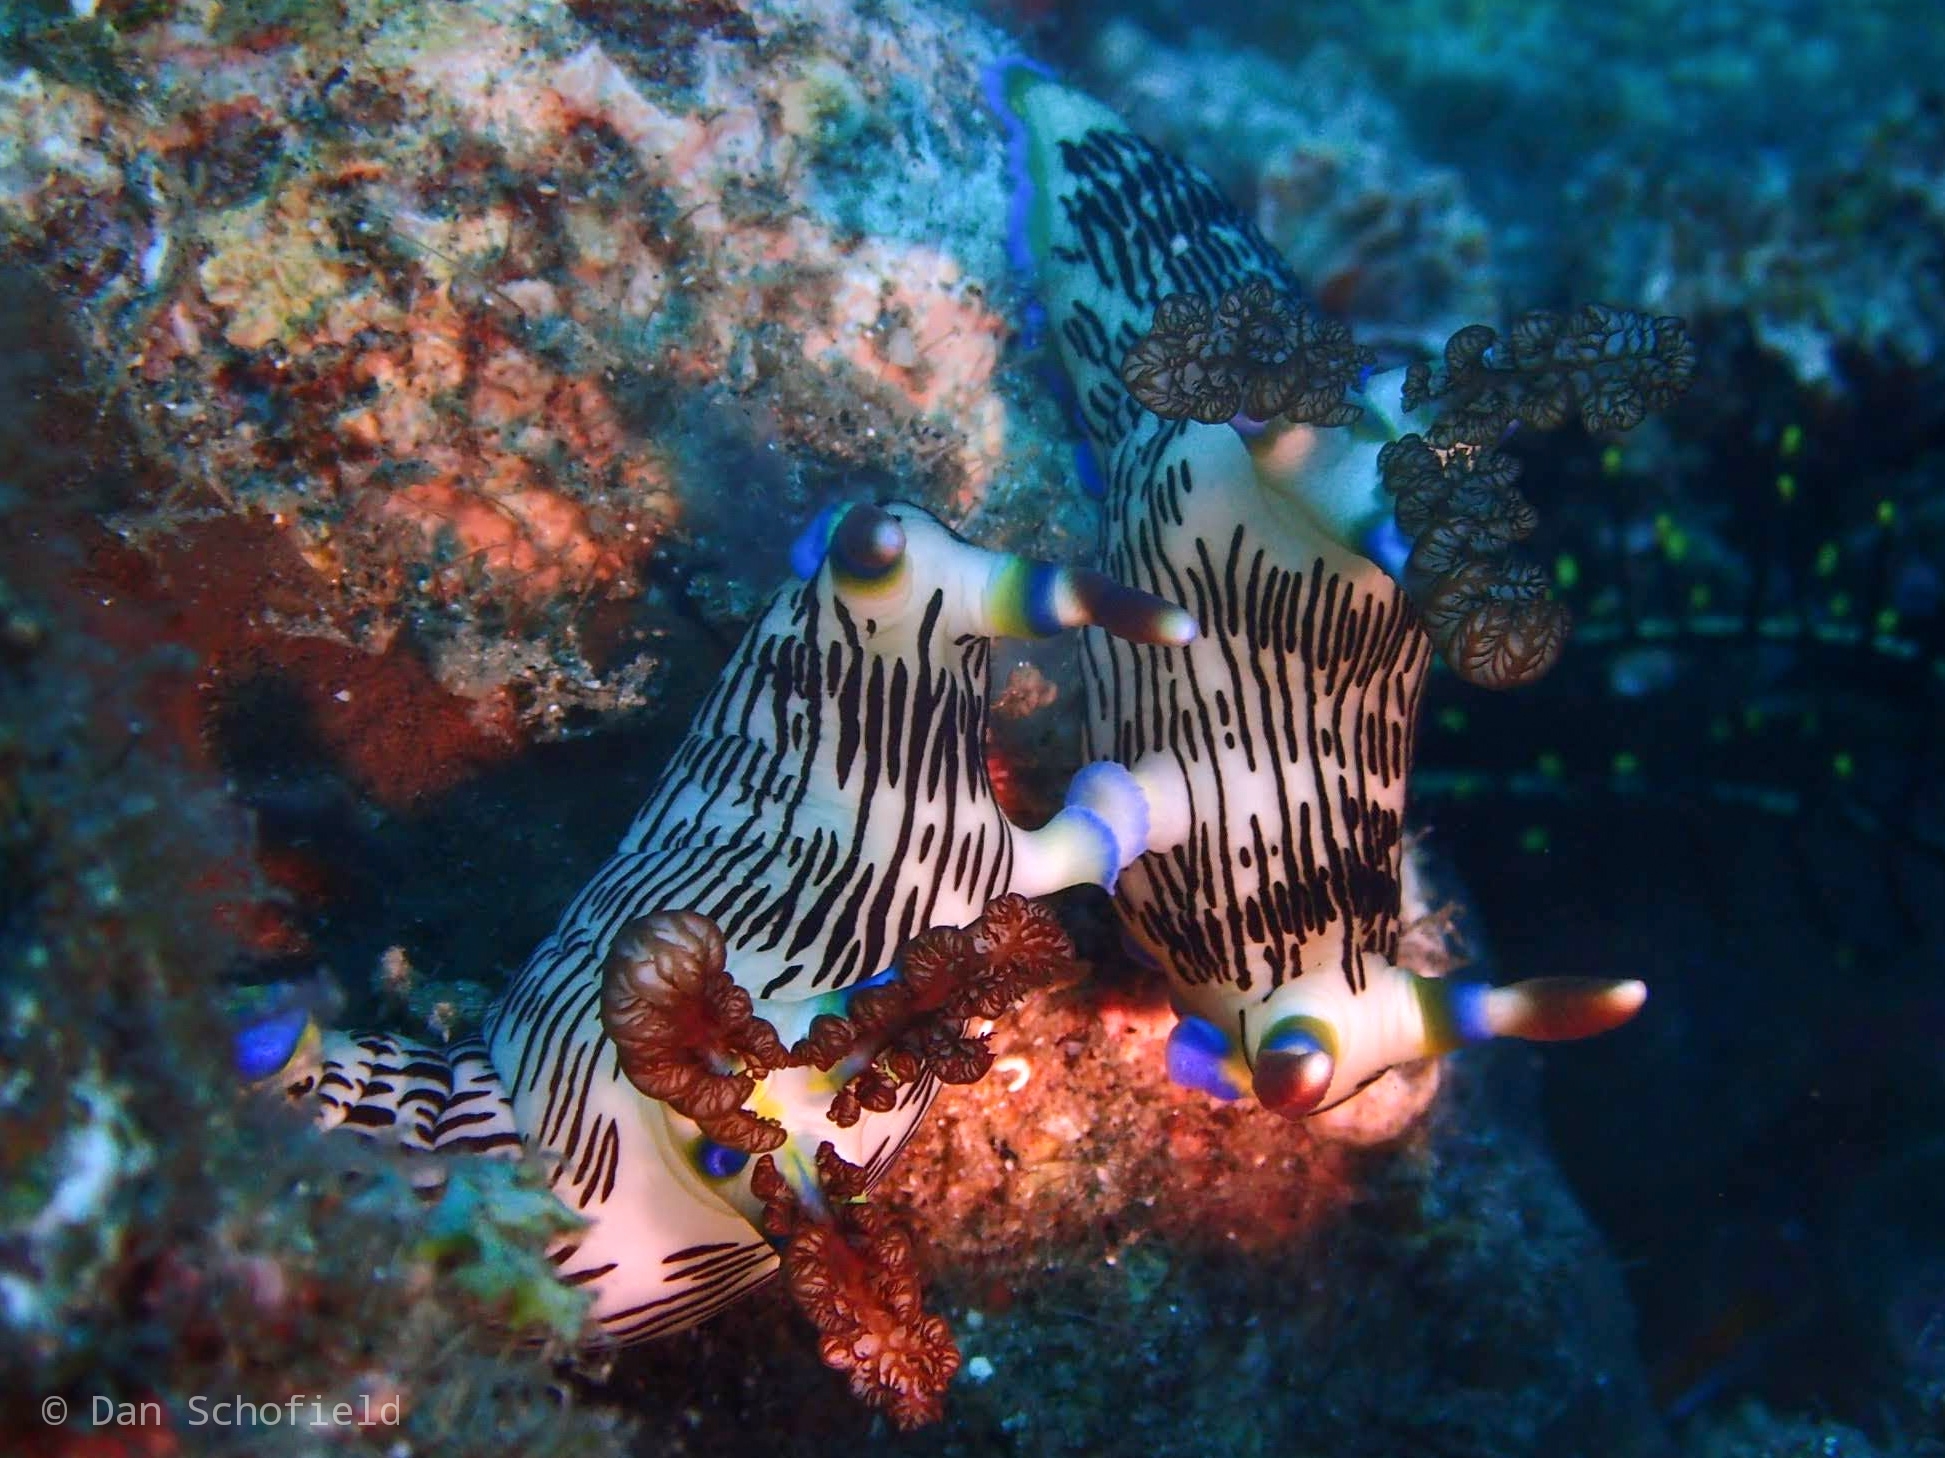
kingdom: Animalia
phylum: Mollusca
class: Gastropoda
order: Nudibranchia
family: Polyceridae
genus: Nembrotha
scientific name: Nembrotha lineolata
